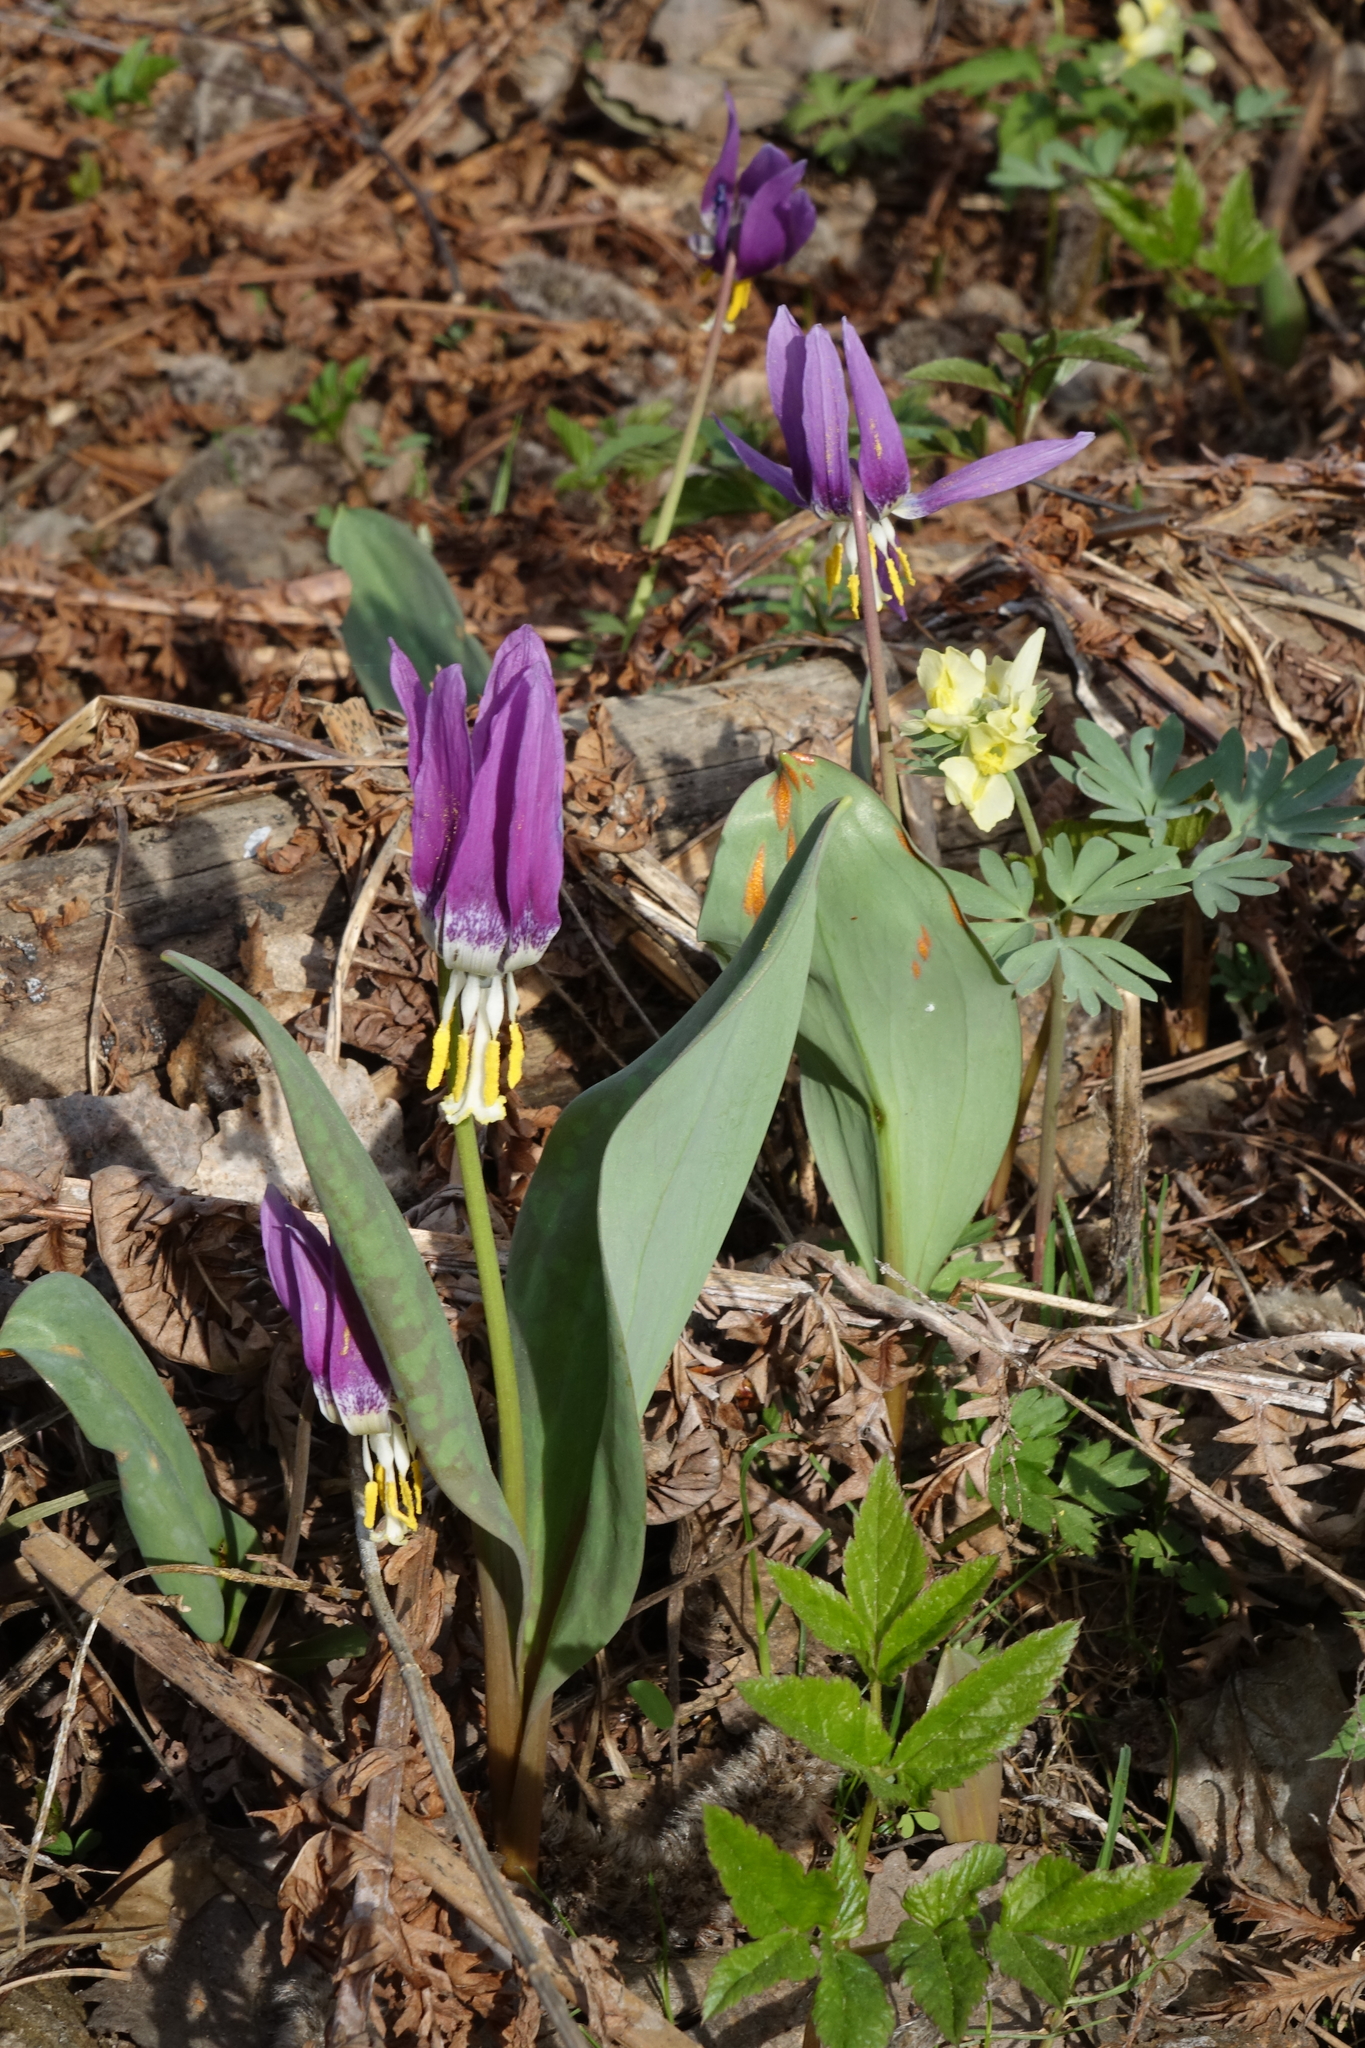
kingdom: Plantae
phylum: Tracheophyta
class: Liliopsida
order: Liliales
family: Liliaceae
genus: Erythronium
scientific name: Erythronium sibiricum
